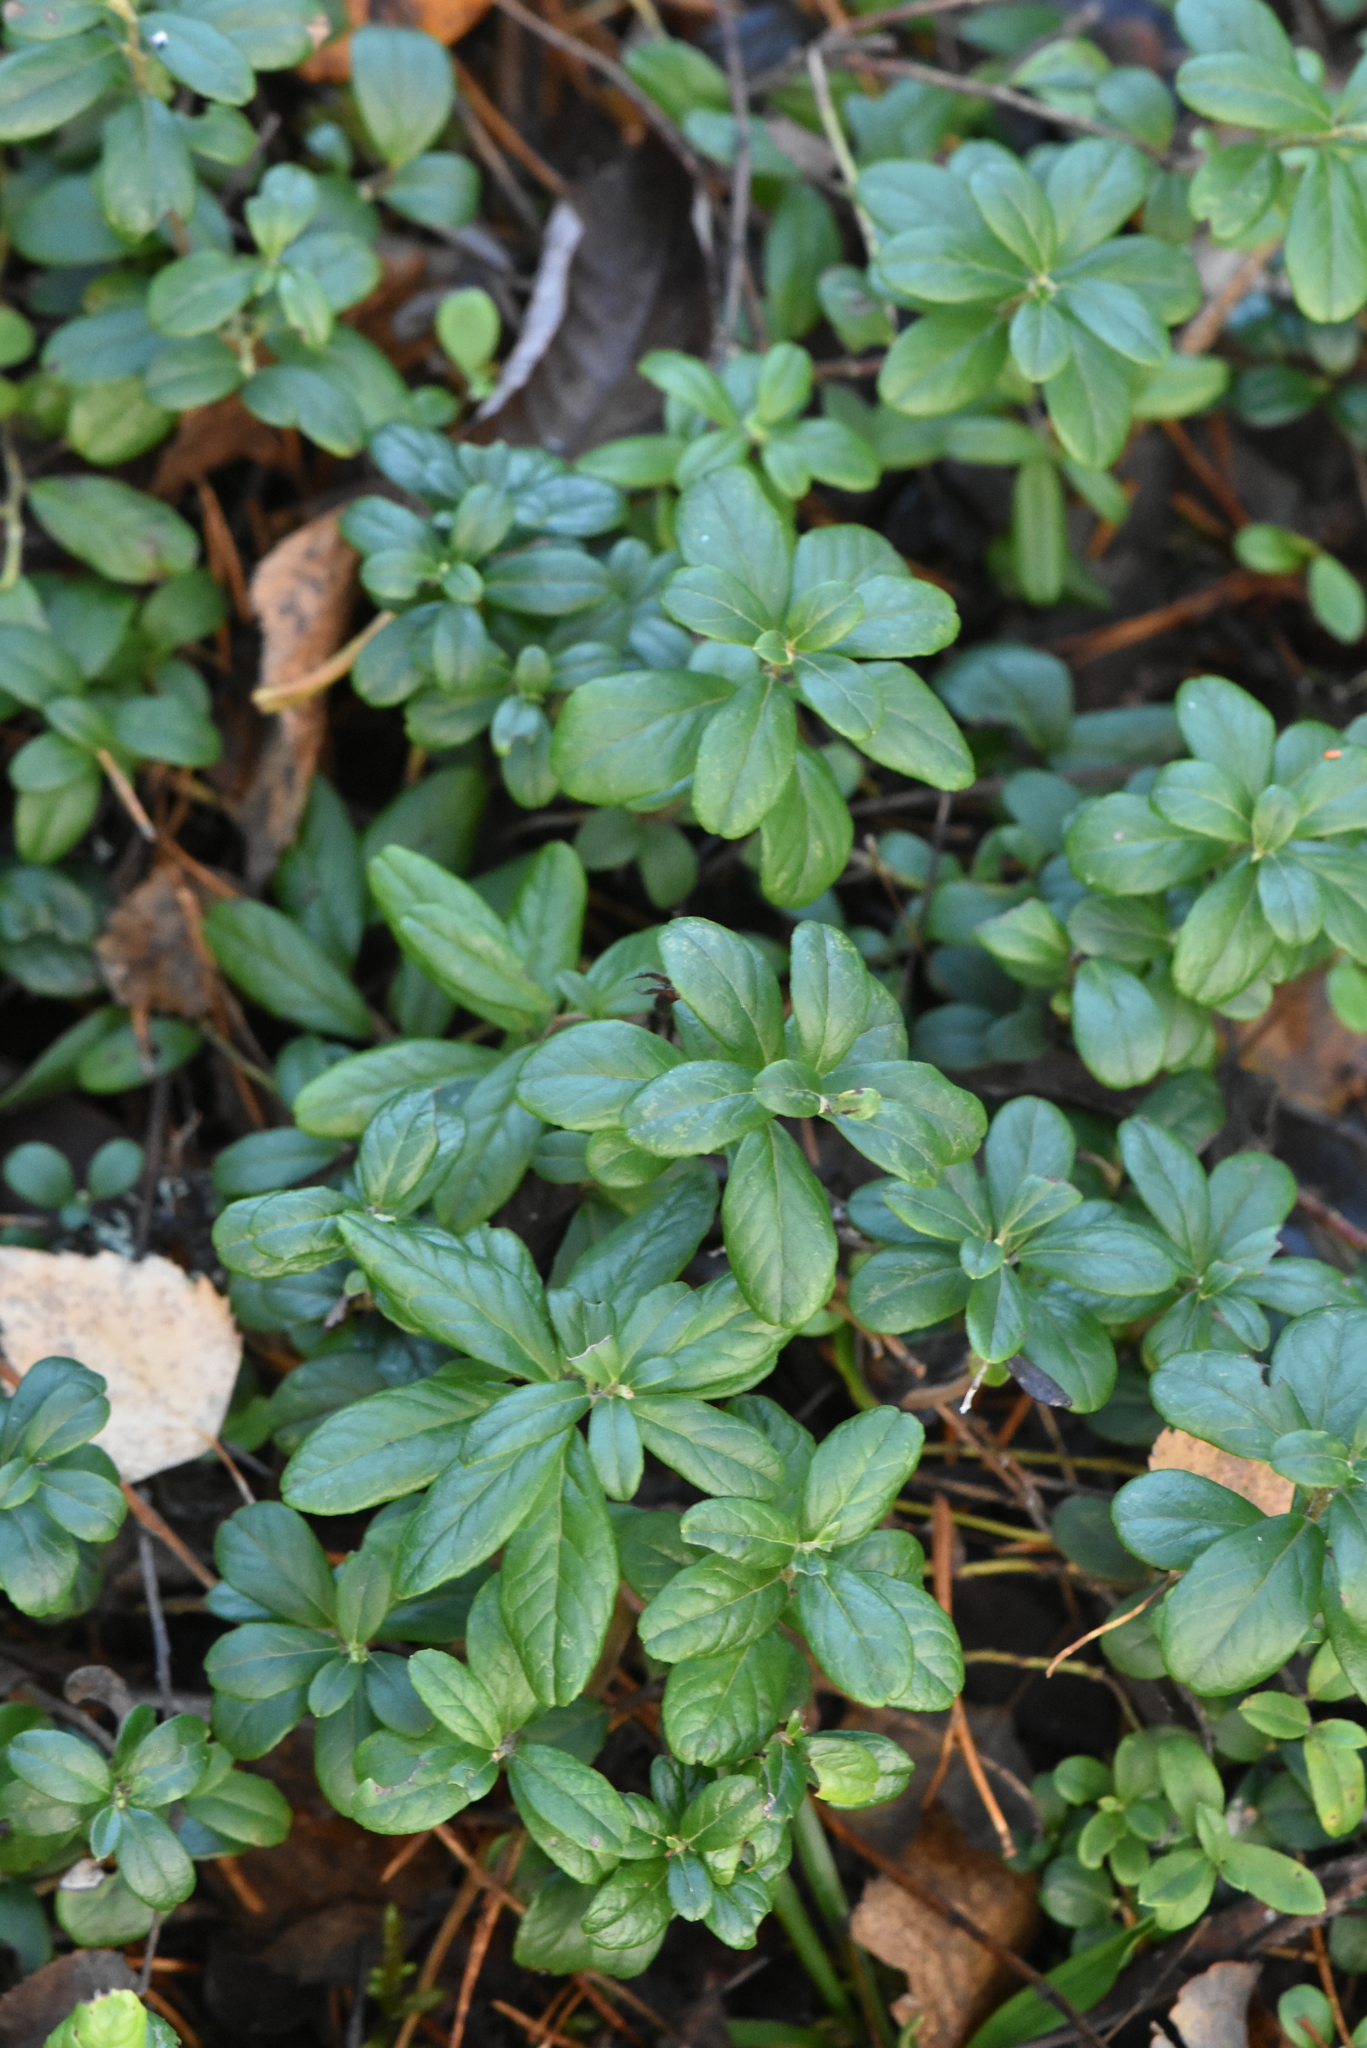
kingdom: Plantae
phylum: Tracheophyta
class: Magnoliopsida
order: Ericales
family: Ericaceae
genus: Vaccinium
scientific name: Vaccinium vitis-idaea
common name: Cowberry
